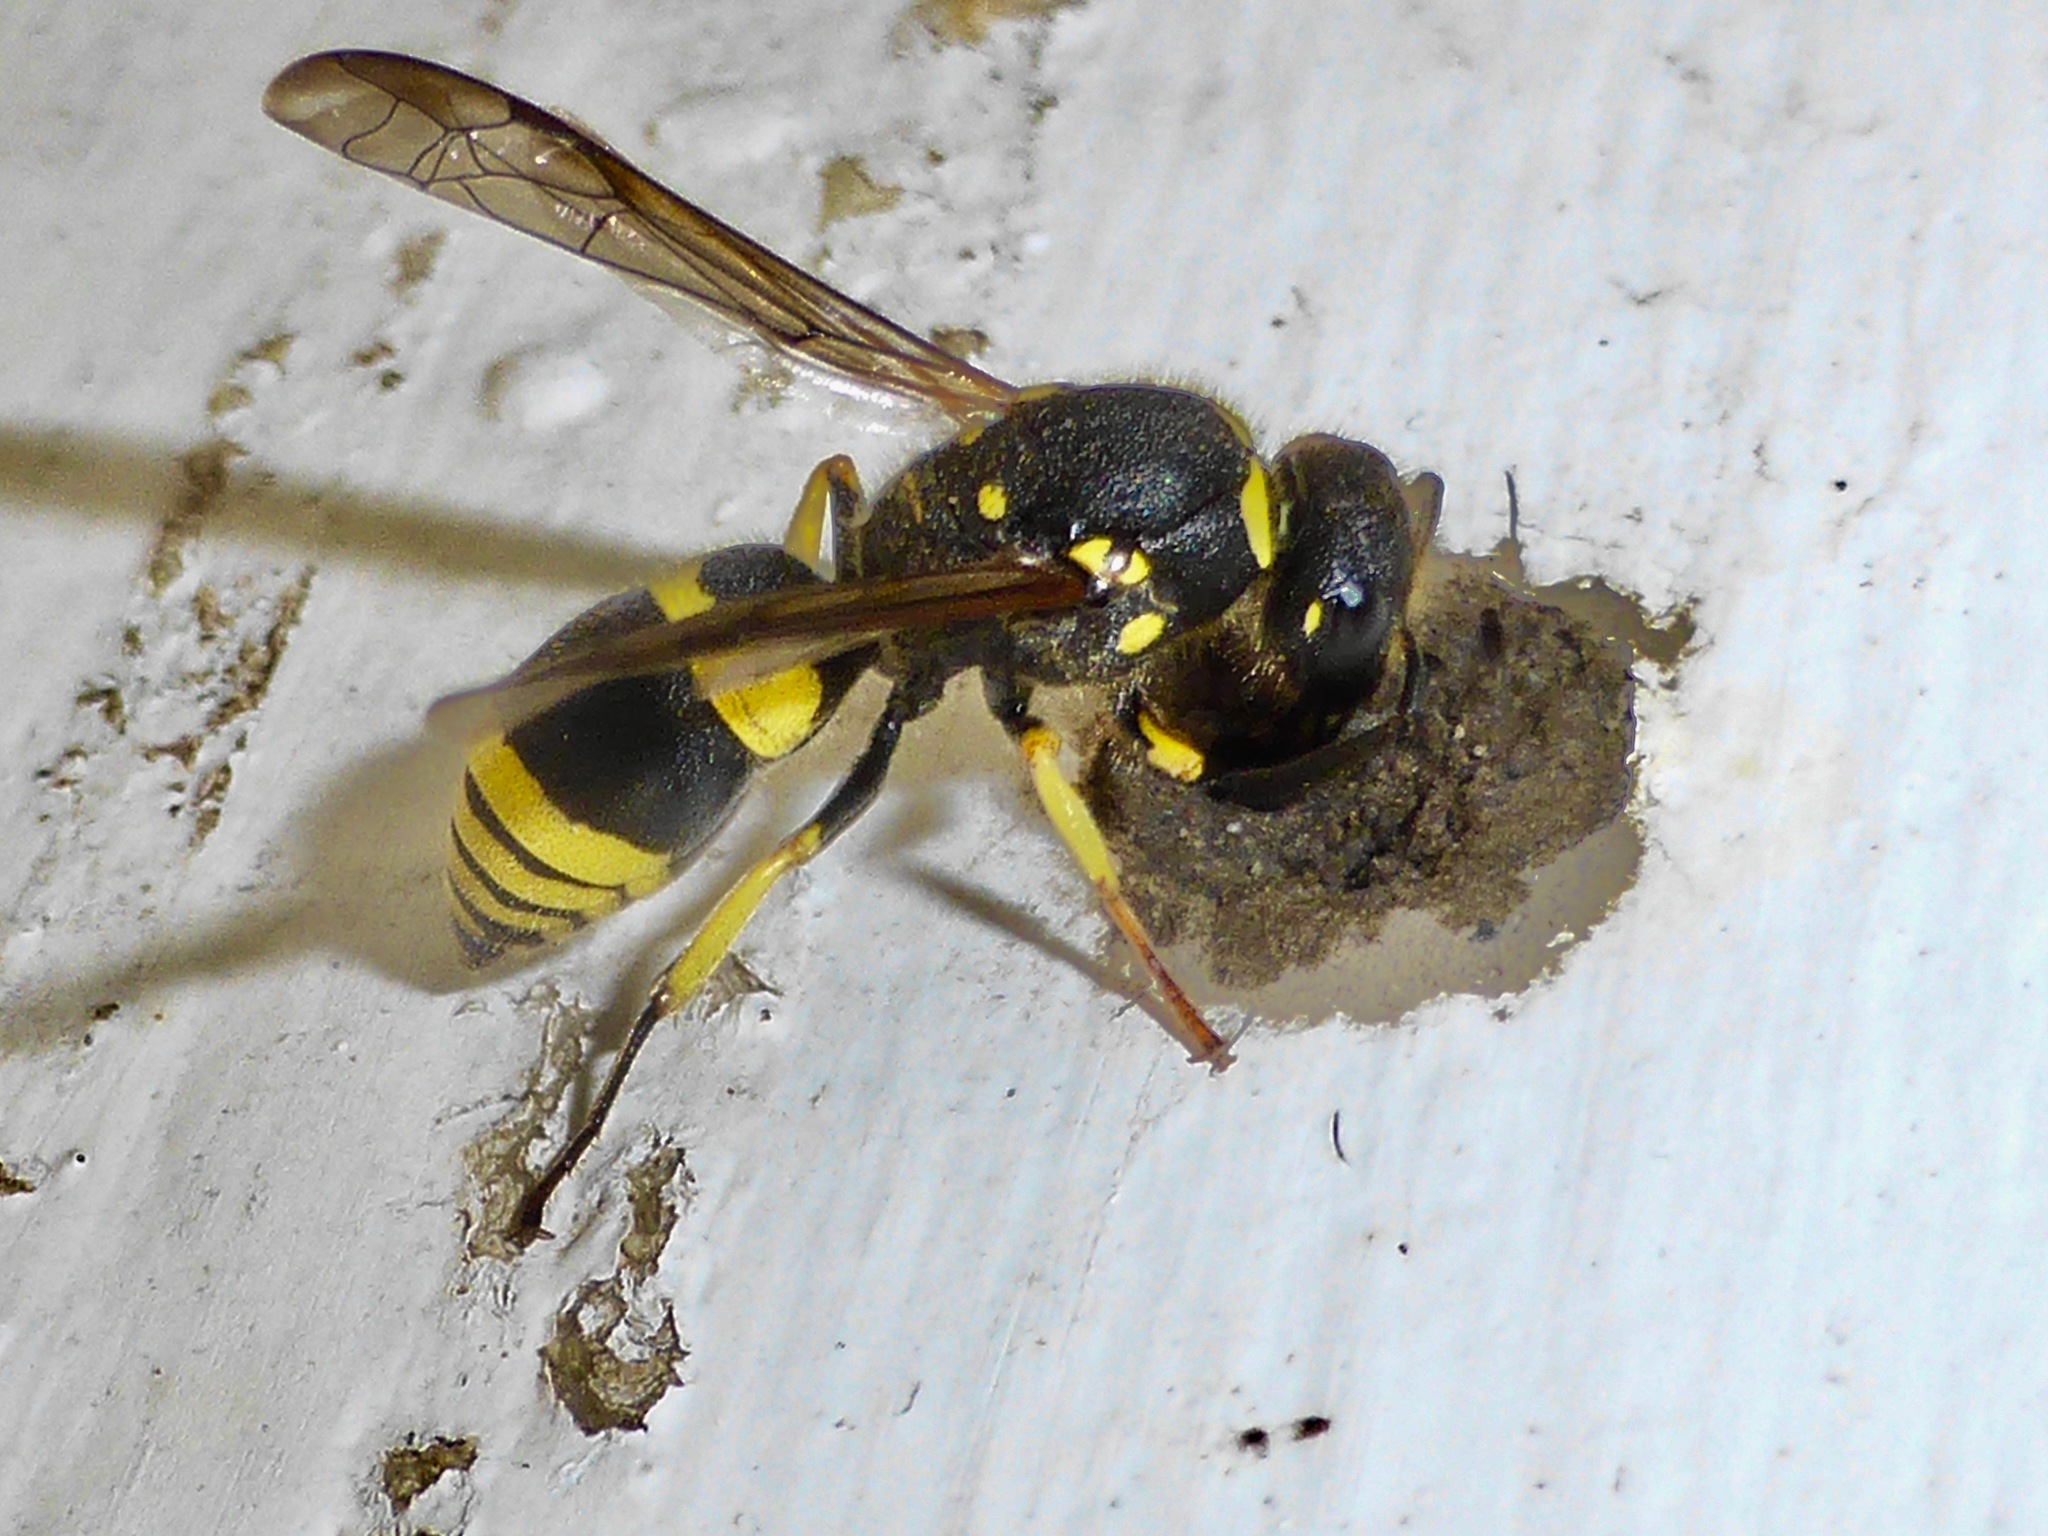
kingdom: Animalia
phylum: Arthropoda
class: Insecta
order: Hymenoptera
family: Vespidae
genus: Ancistrocerus
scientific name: Ancistrocerus gazella
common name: European tube wasp
